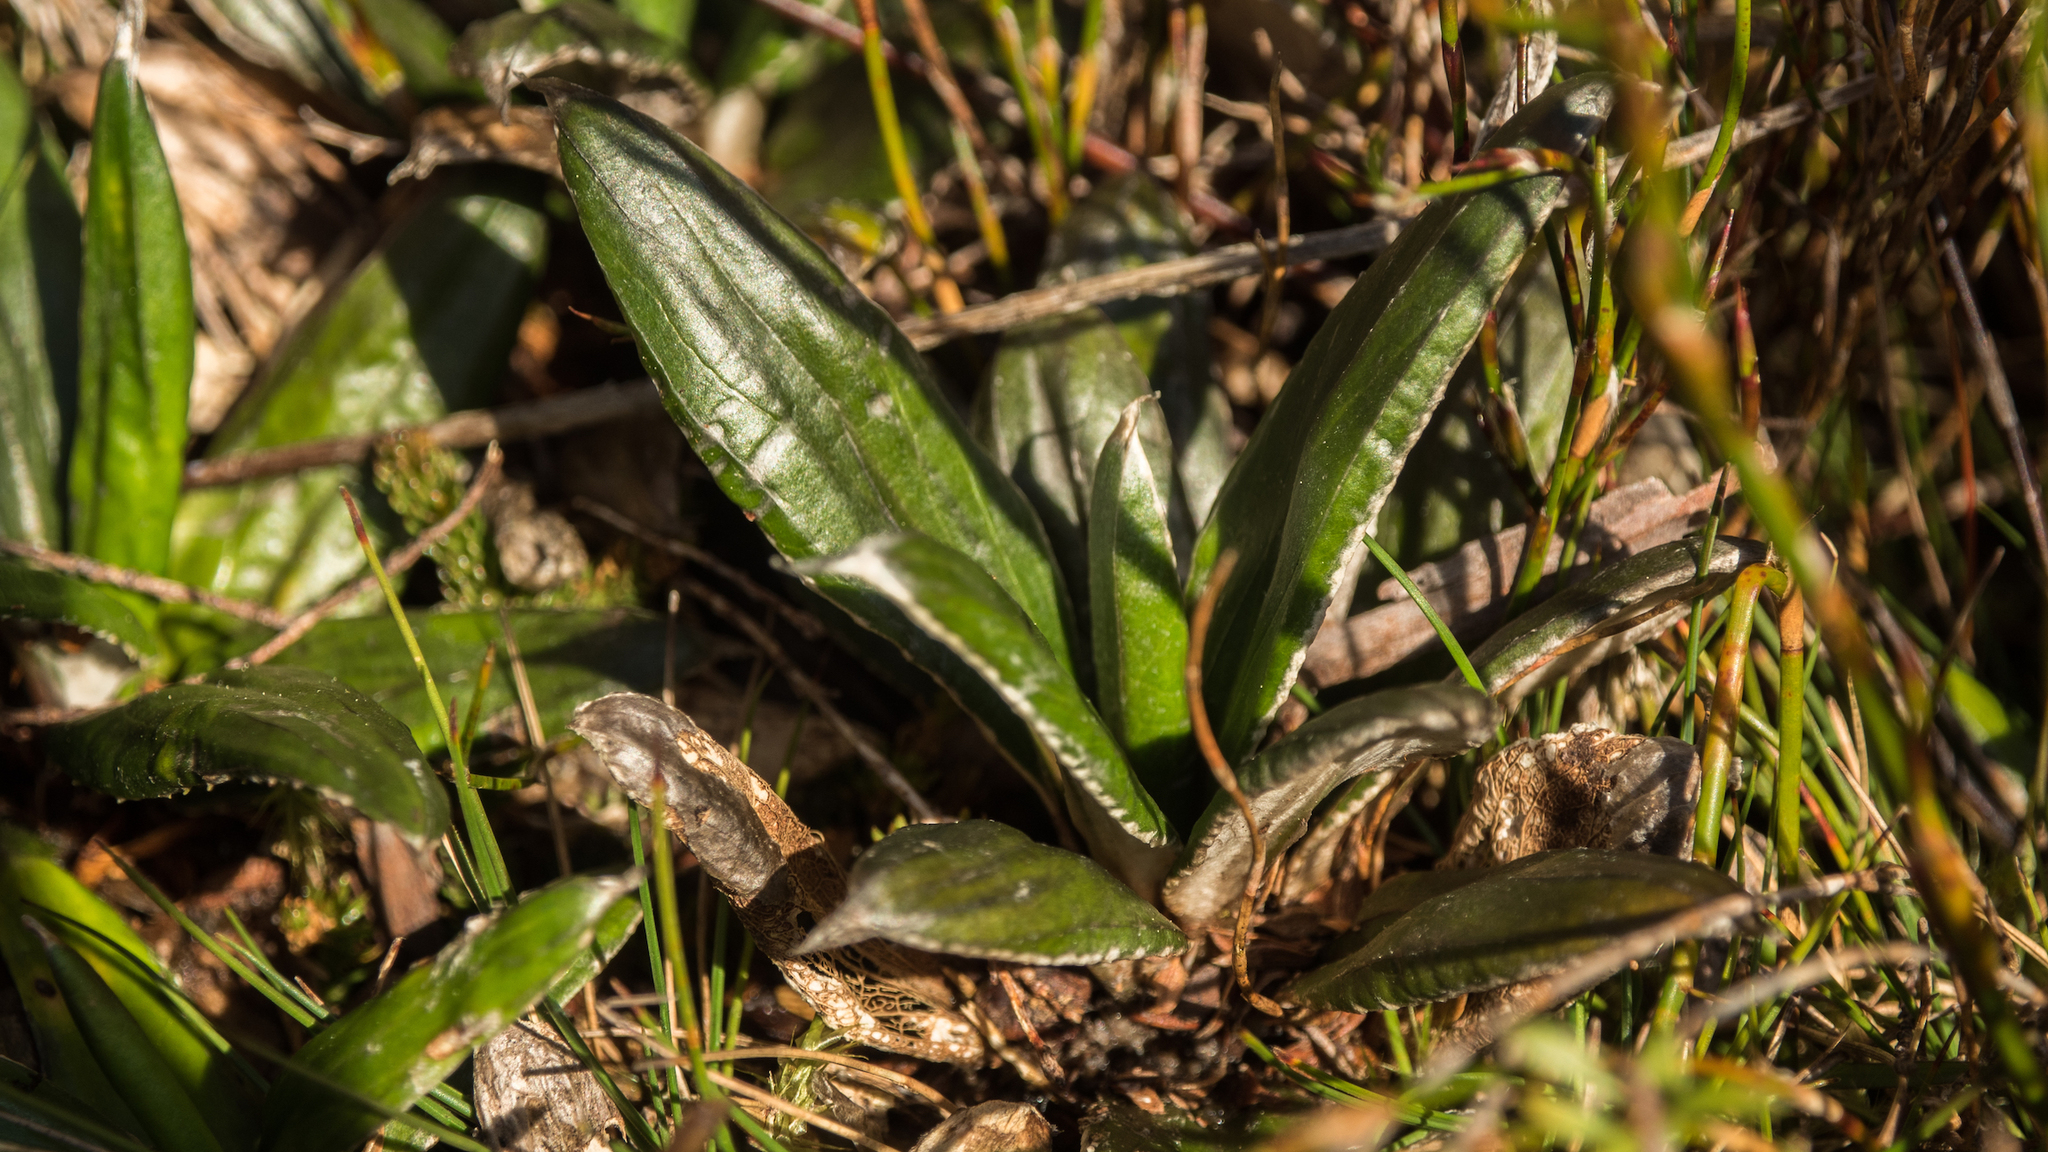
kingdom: Plantae
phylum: Tracheophyta
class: Magnoliopsida
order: Asterales
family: Asteraceae
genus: Celmisia
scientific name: Celmisia dubia
